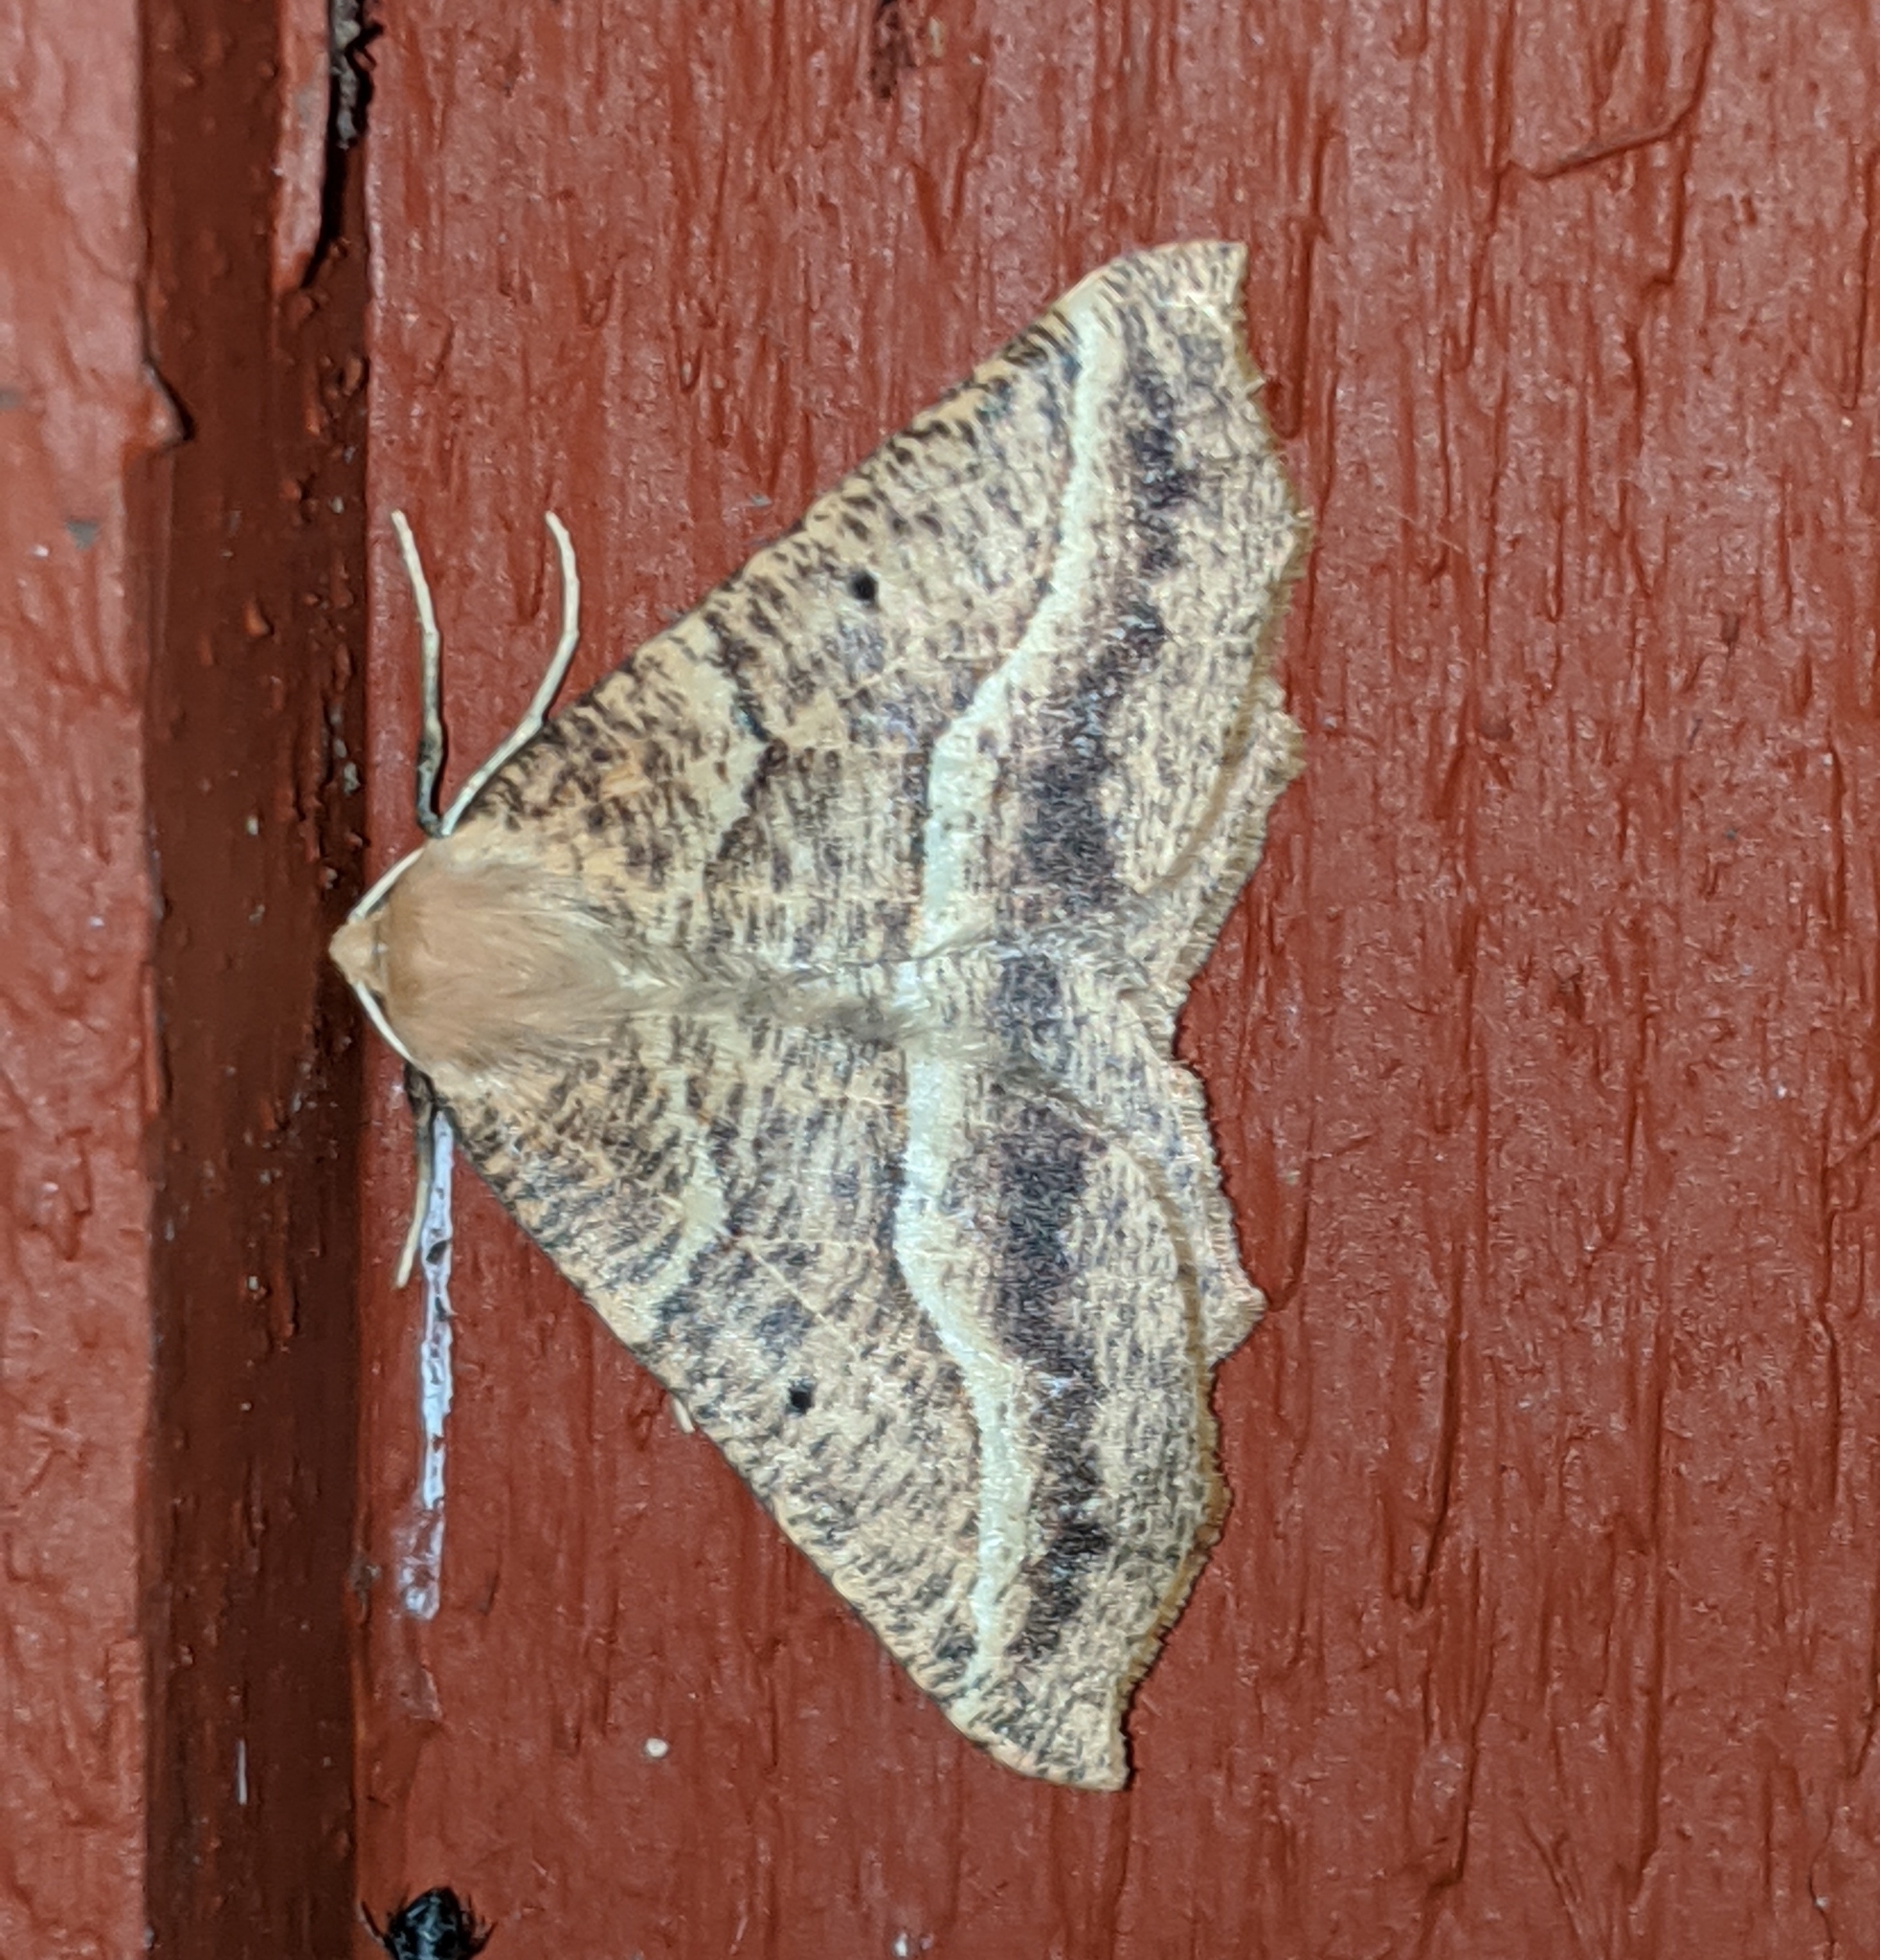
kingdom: Animalia
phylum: Arthropoda
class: Insecta
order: Lepidoptera
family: Geometridae
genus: Synaxis
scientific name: Synaxis pallulata
